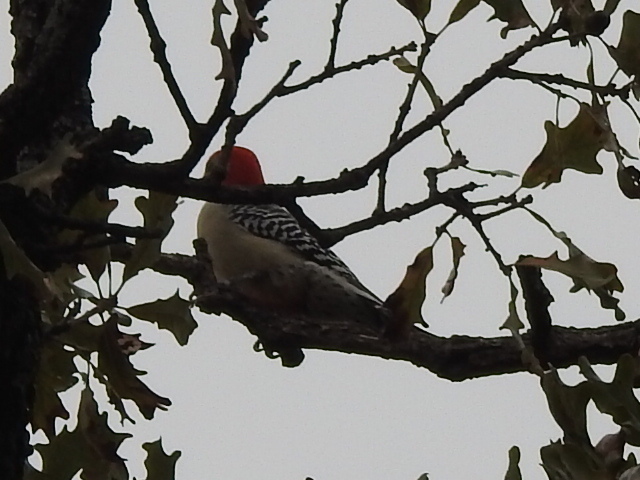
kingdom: Animalia
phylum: Chordata
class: Aves
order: Piciformes
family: Picidae
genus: Melanerpes
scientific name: Melanerpes carolinus
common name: Red-bellied woodpecker
